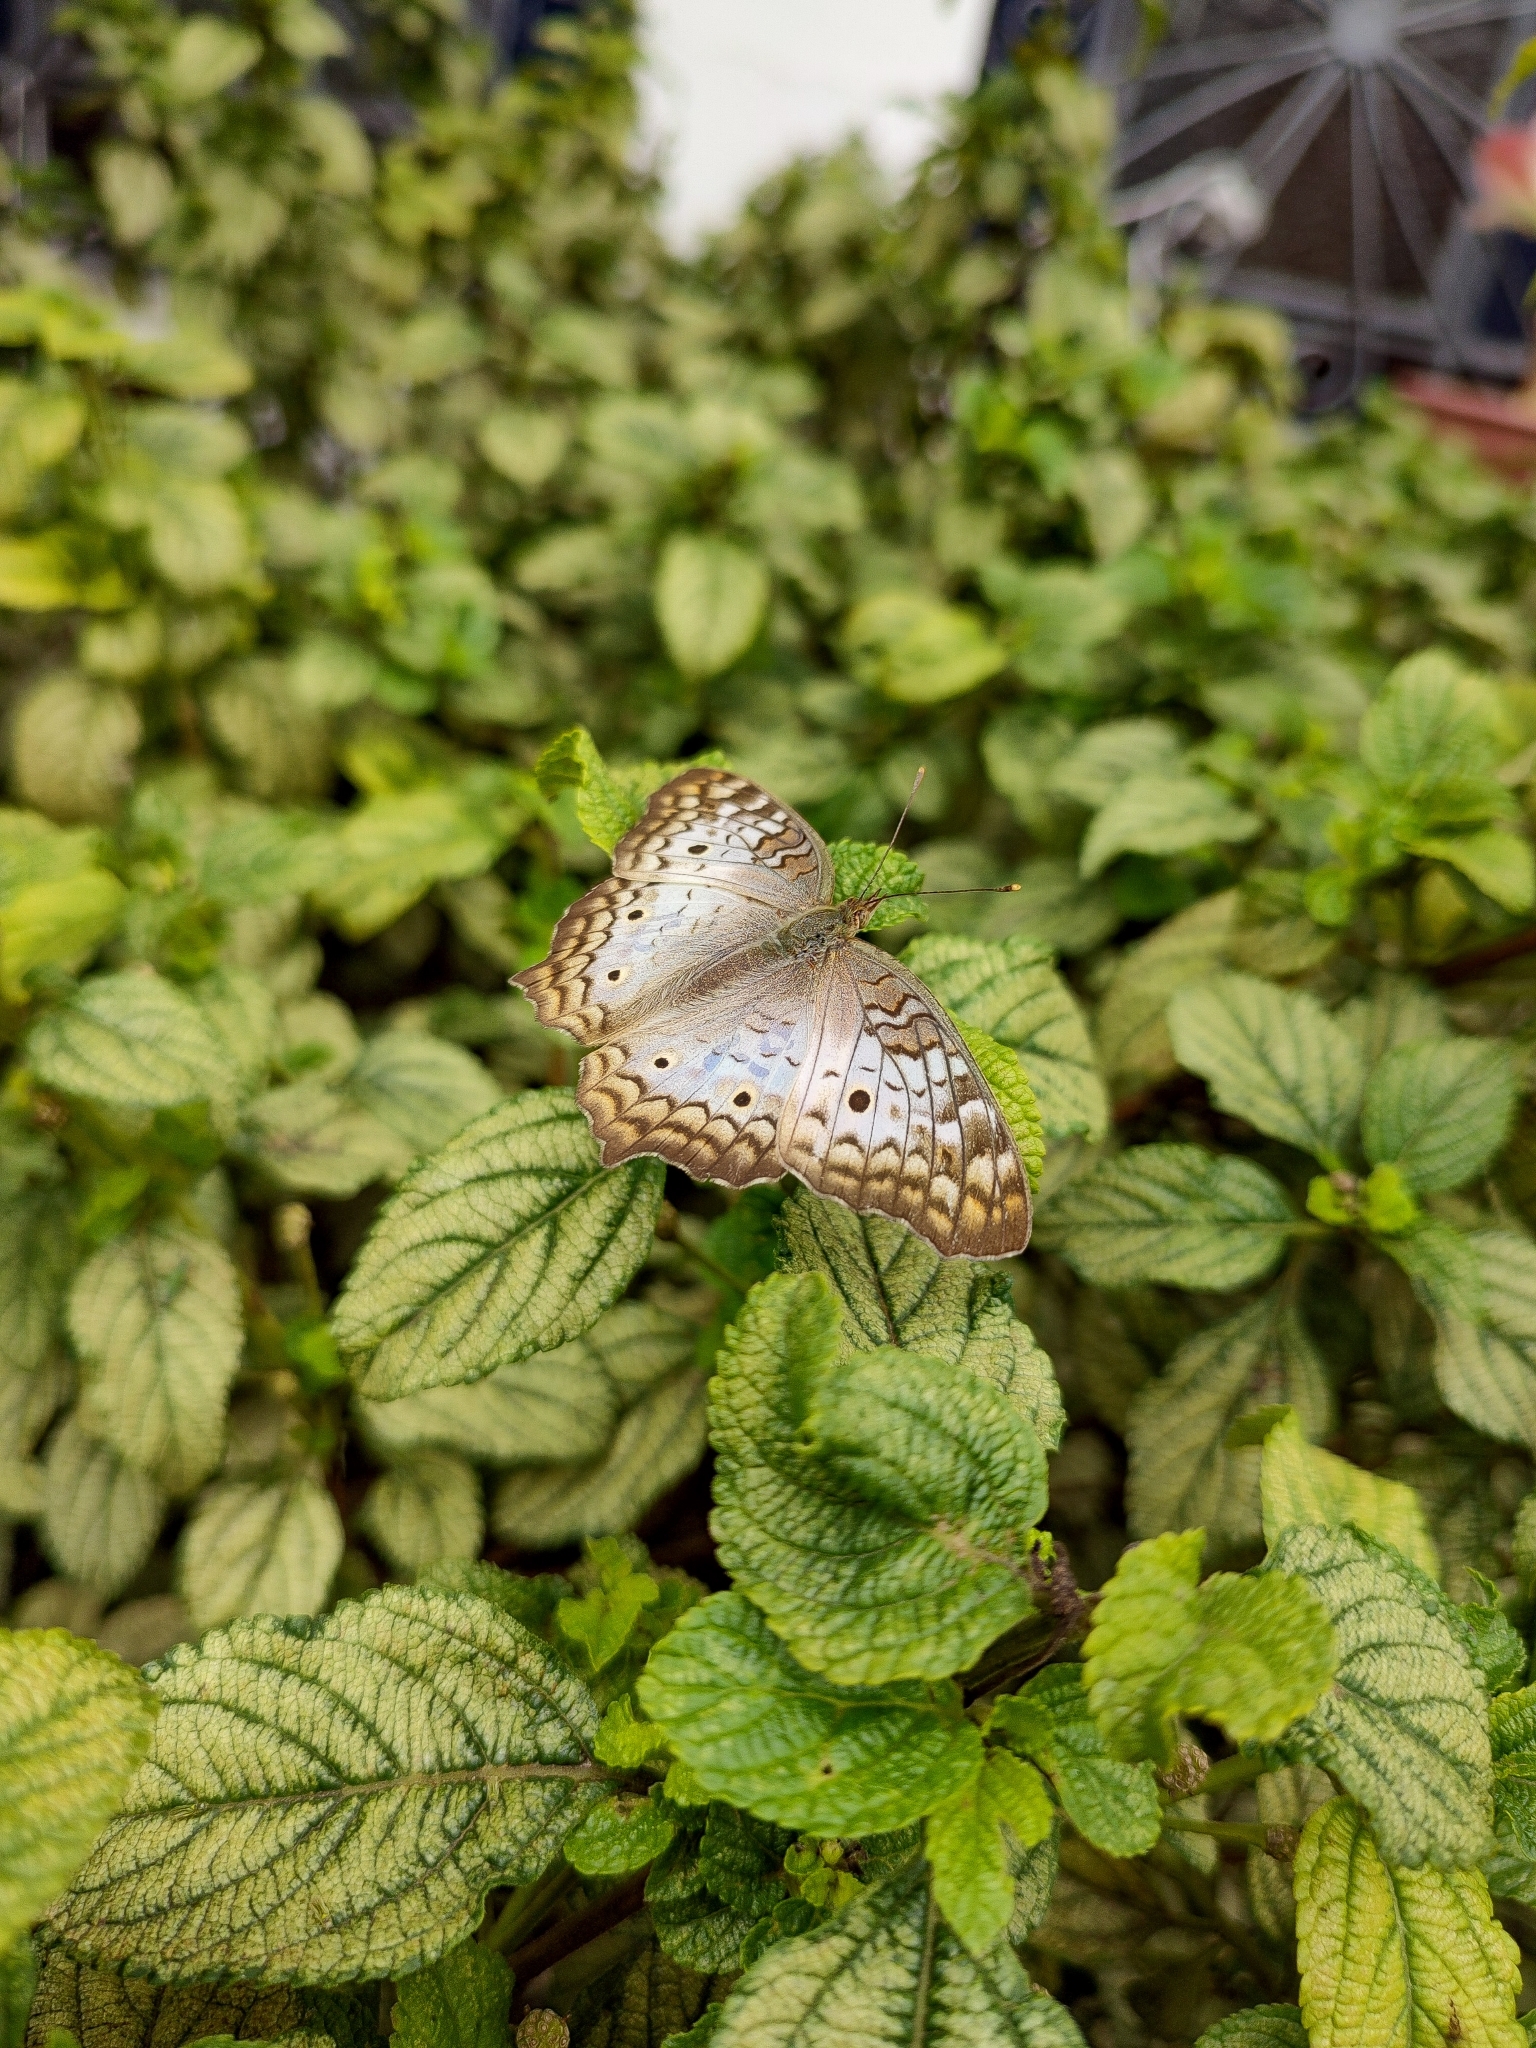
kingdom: Animalia
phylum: Arthropoda
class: Insecta
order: Lepidoptera
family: Nymphalidae
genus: Anartia
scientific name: Anartia jatrophae
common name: White peacock
